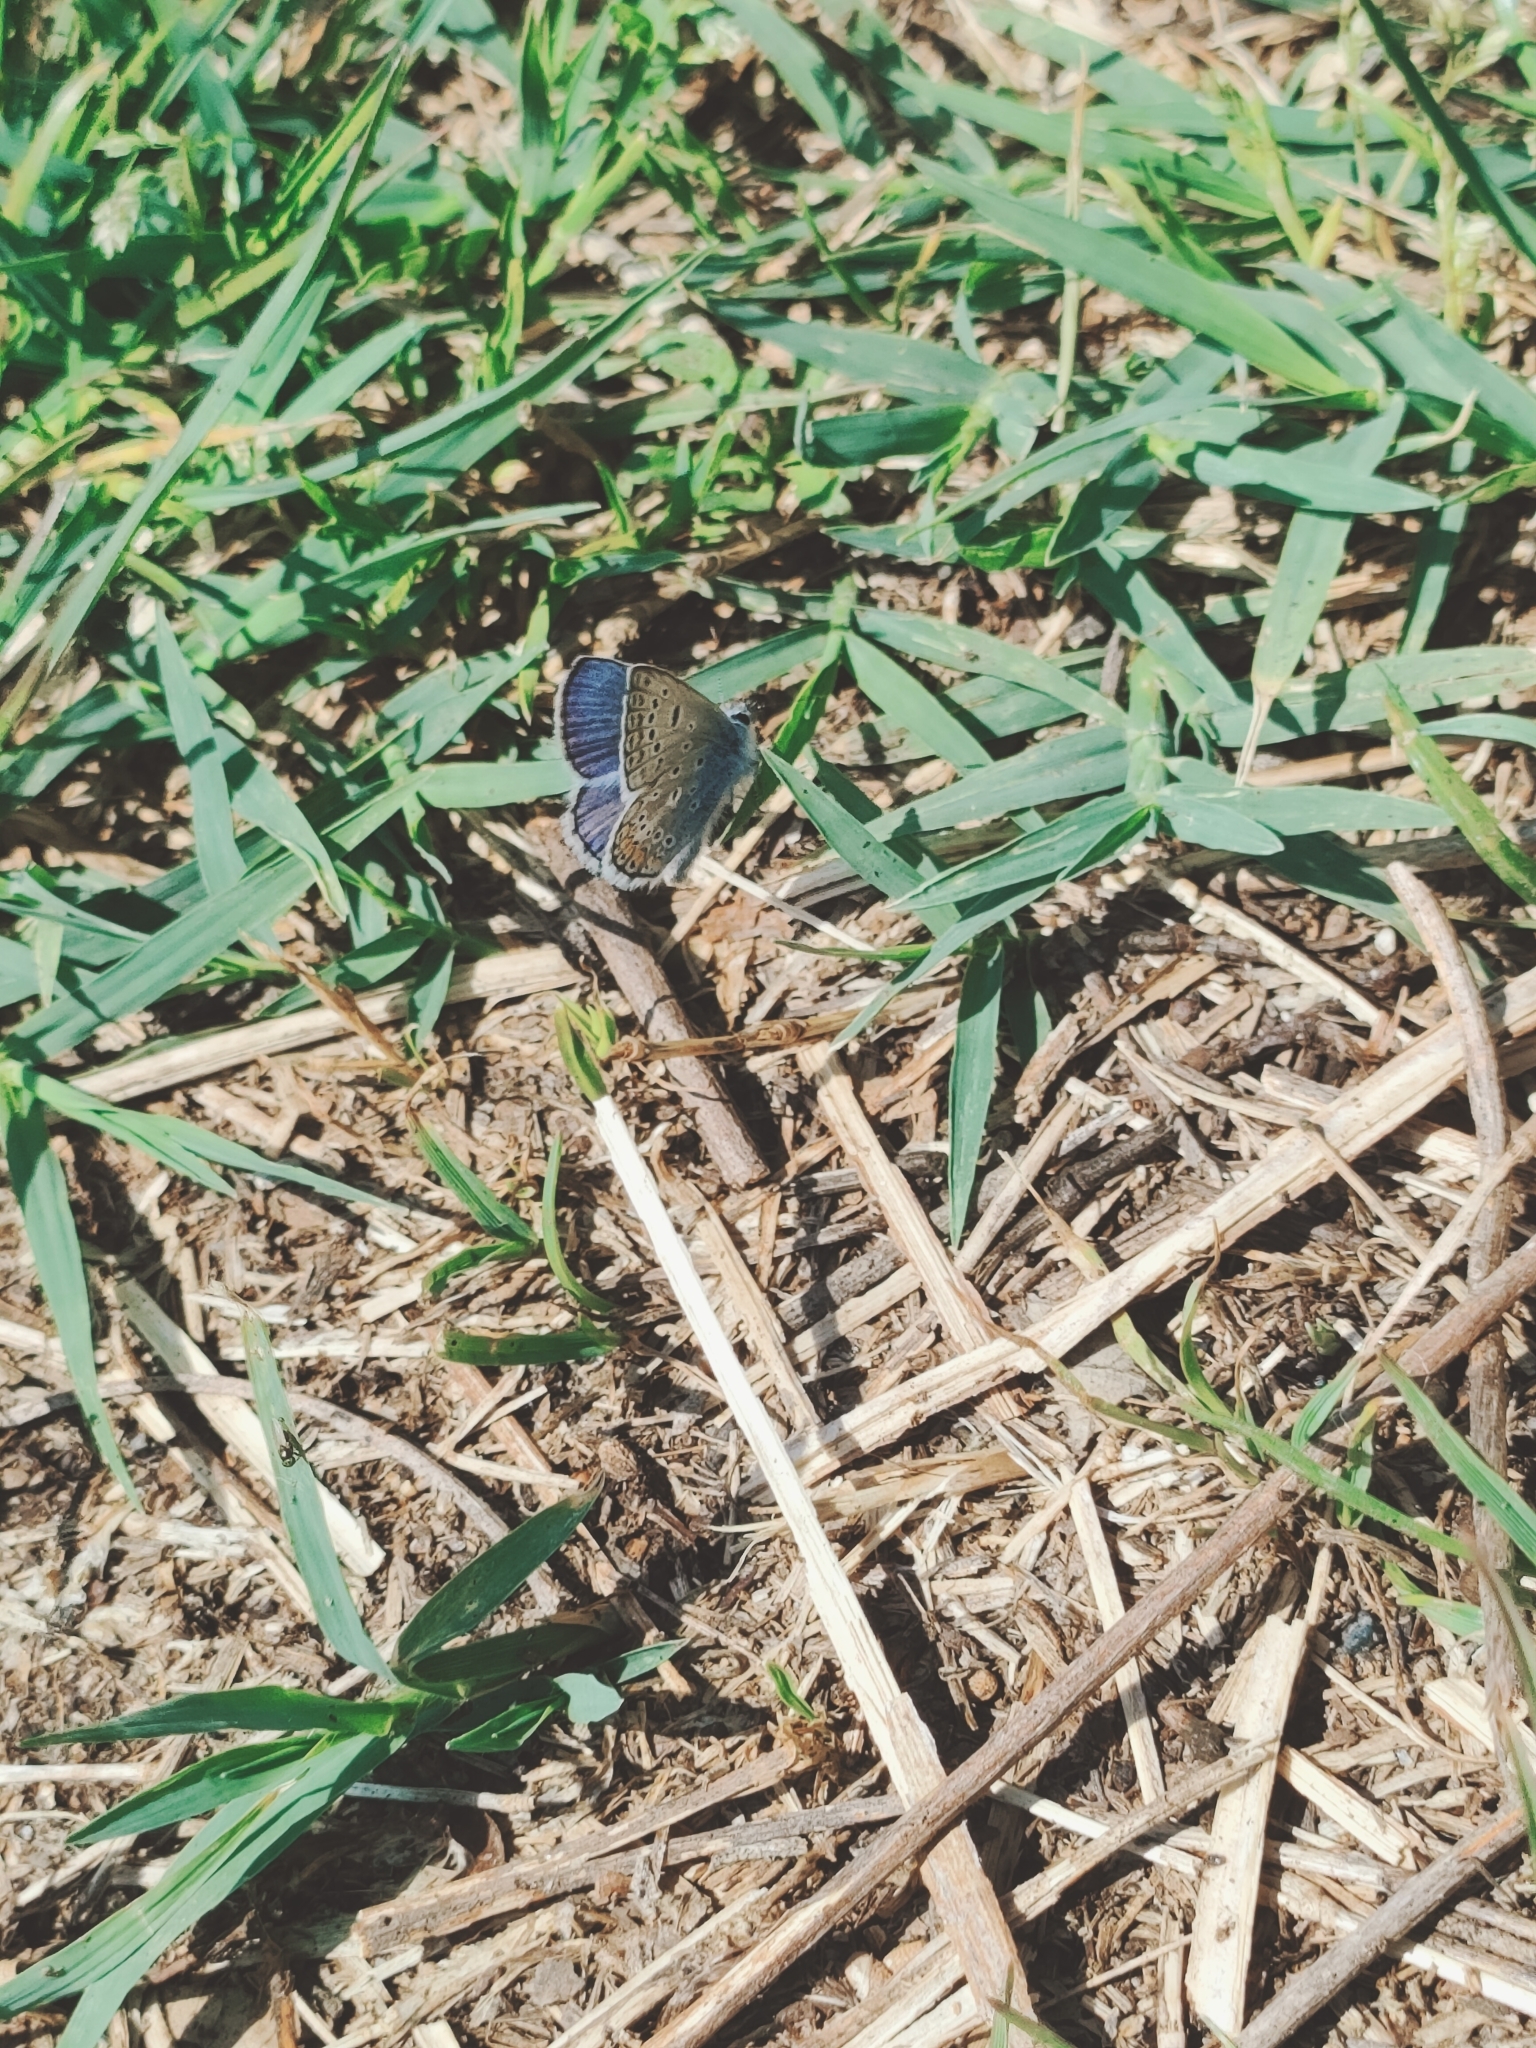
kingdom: Animalia
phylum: Arthropoda
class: Insecta
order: Lepidoptera
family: Lycaenidae
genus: Polyommatus
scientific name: Polyommatus icarus
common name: Common blue
